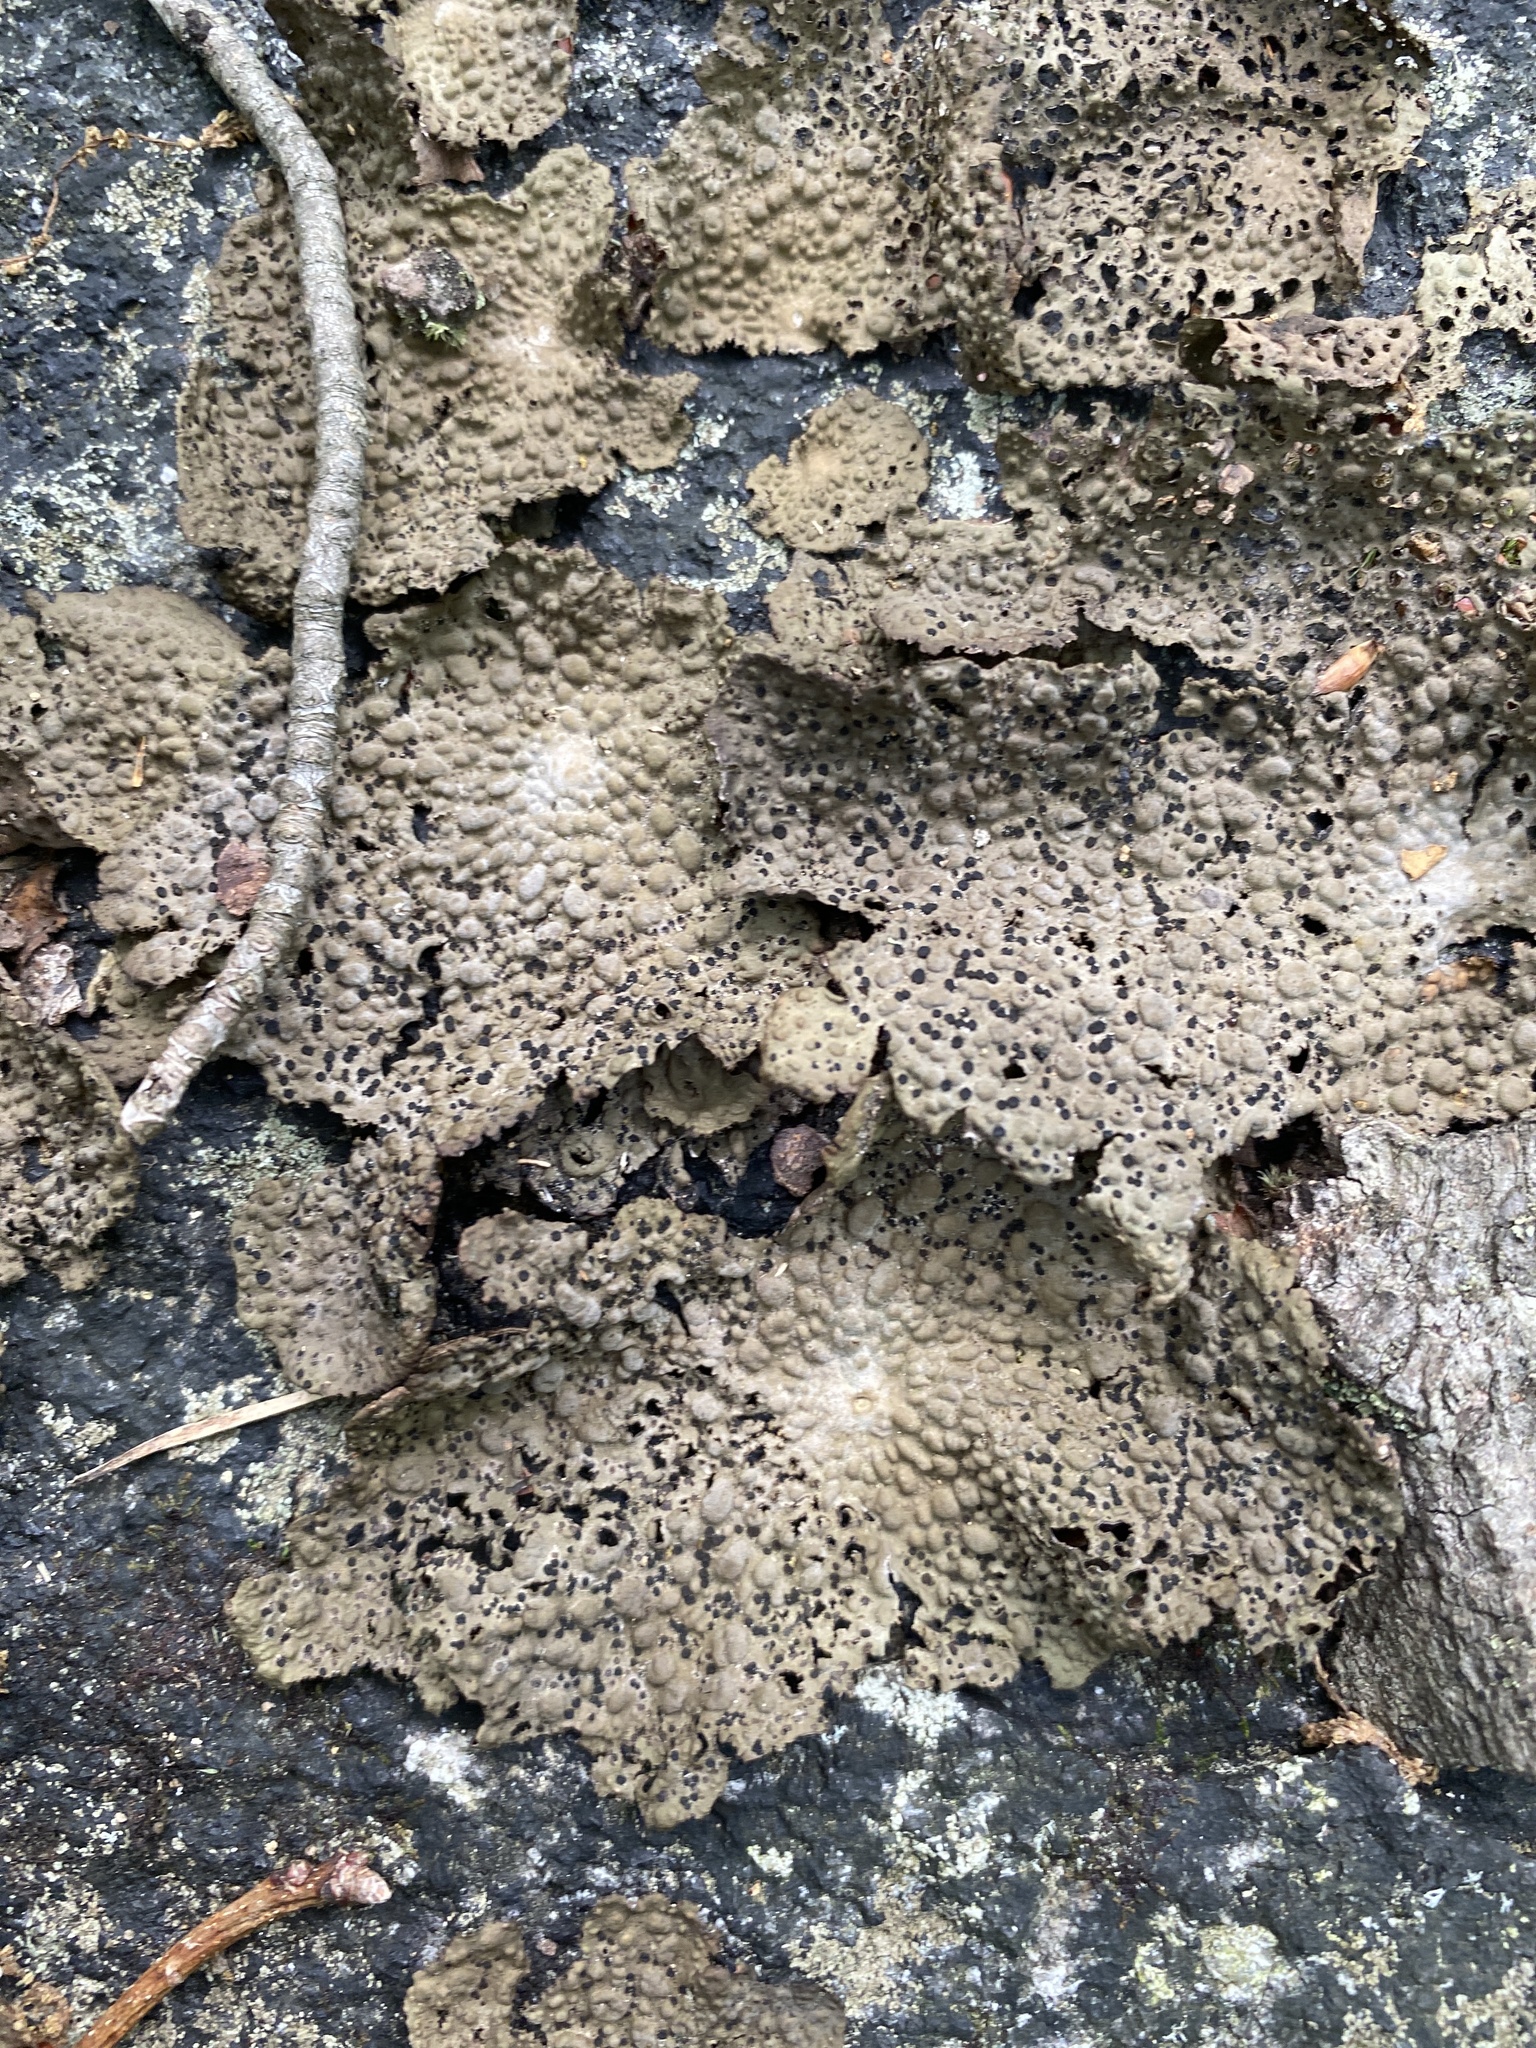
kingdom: Fungi
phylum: Ascomycota
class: Lecanoromycetes
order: Umbilicariales
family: Umbilicariaceae
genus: Lasallia
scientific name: Lasallia papulosa
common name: Common toadskin lichen
